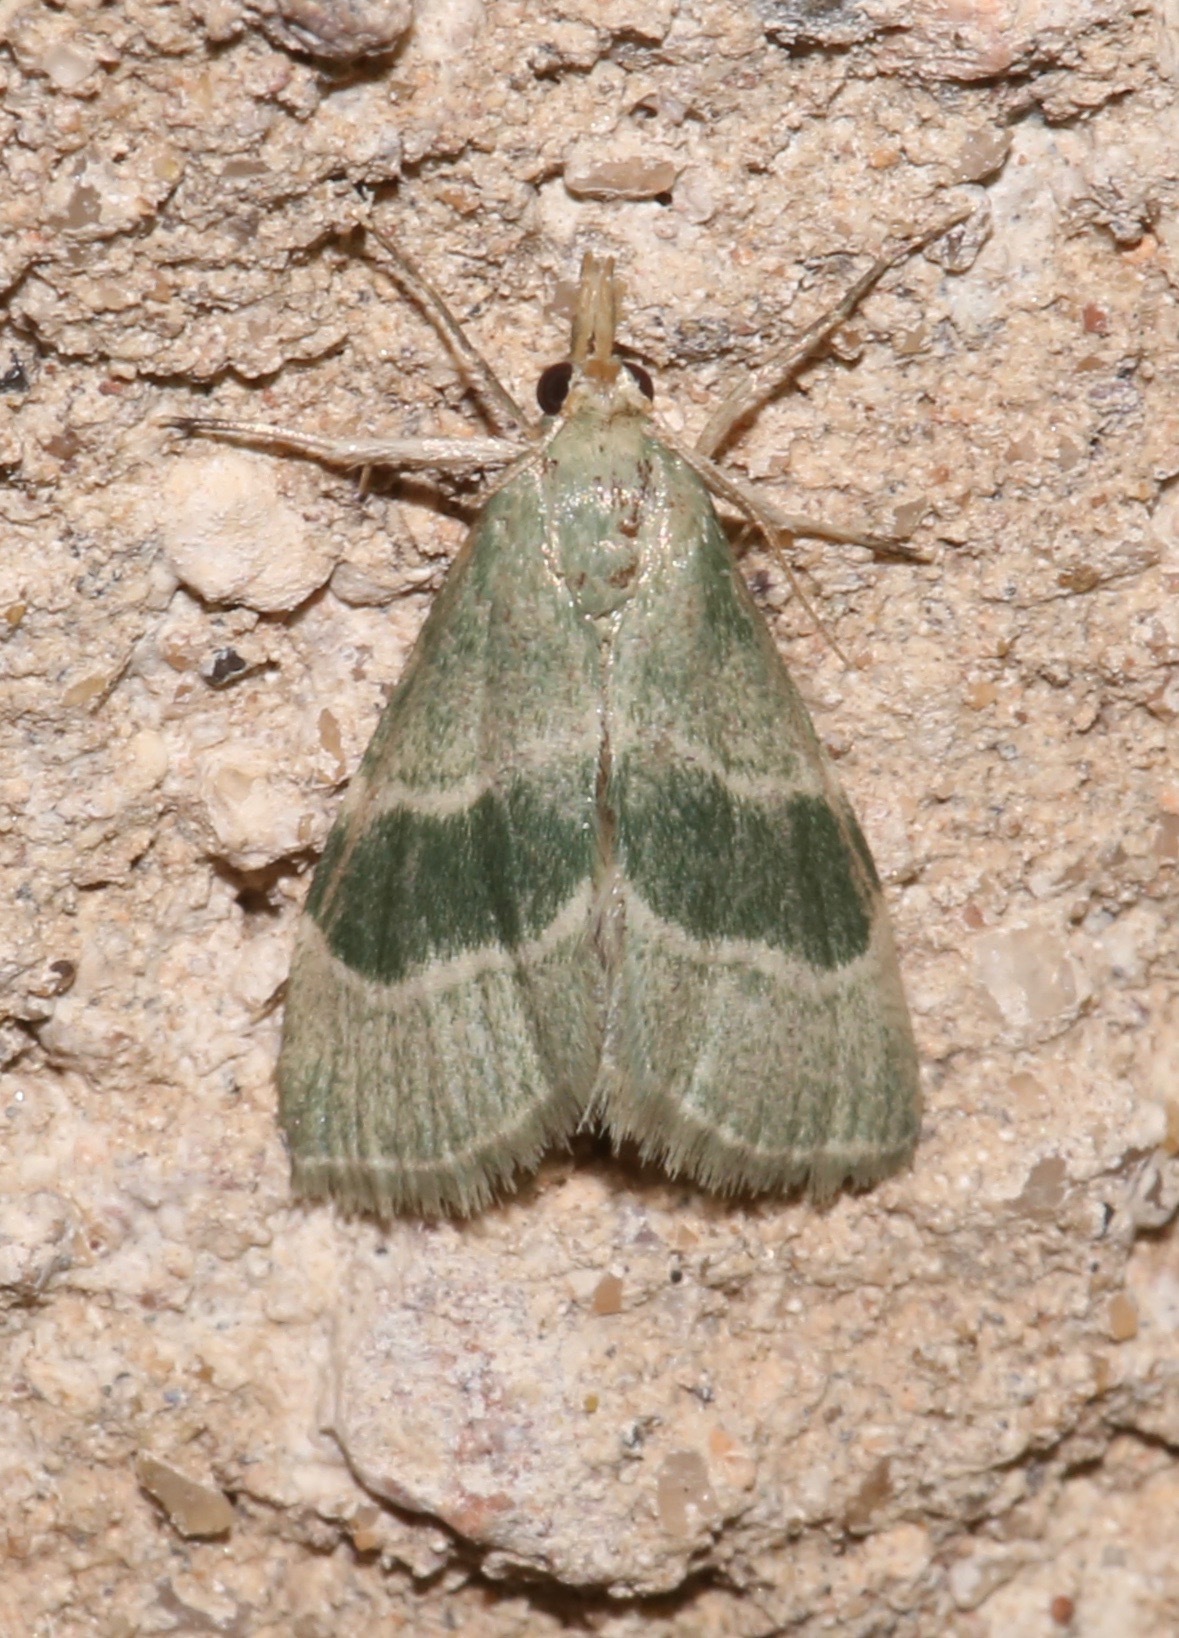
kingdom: Animalia
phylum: Arthropoda
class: Insecta
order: Lepidoptera
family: Pyralidae
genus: Anemosella
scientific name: Anemosella viridalis
